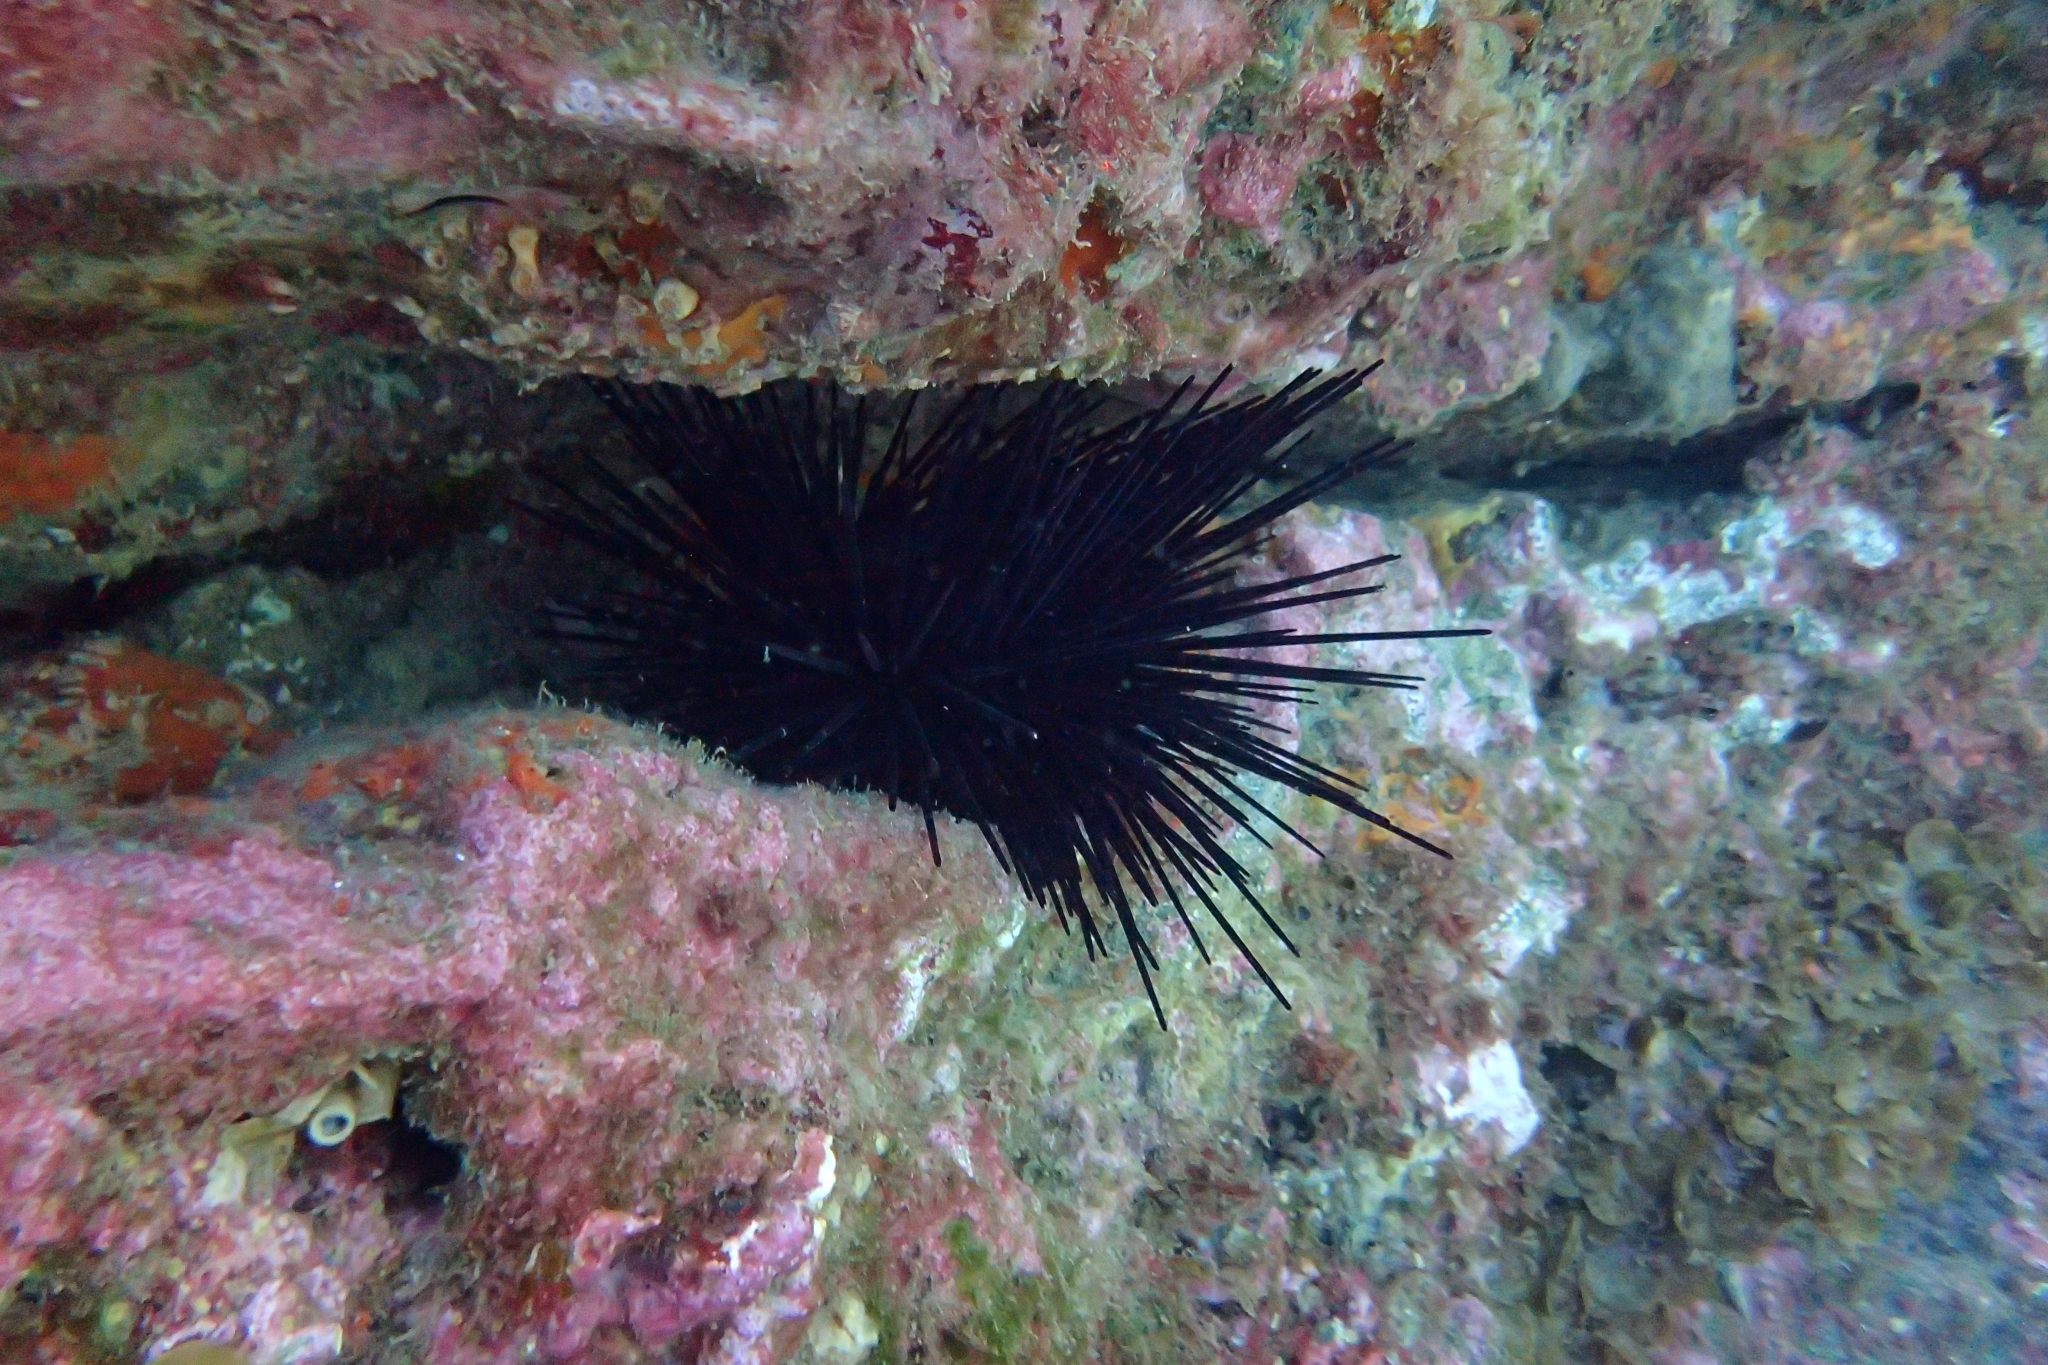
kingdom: Animalia
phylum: Echinodermata
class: Echinoidea
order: Diadematoida
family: Diadematidae
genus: Centrostephanus
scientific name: Centrostephanus rodgersii
